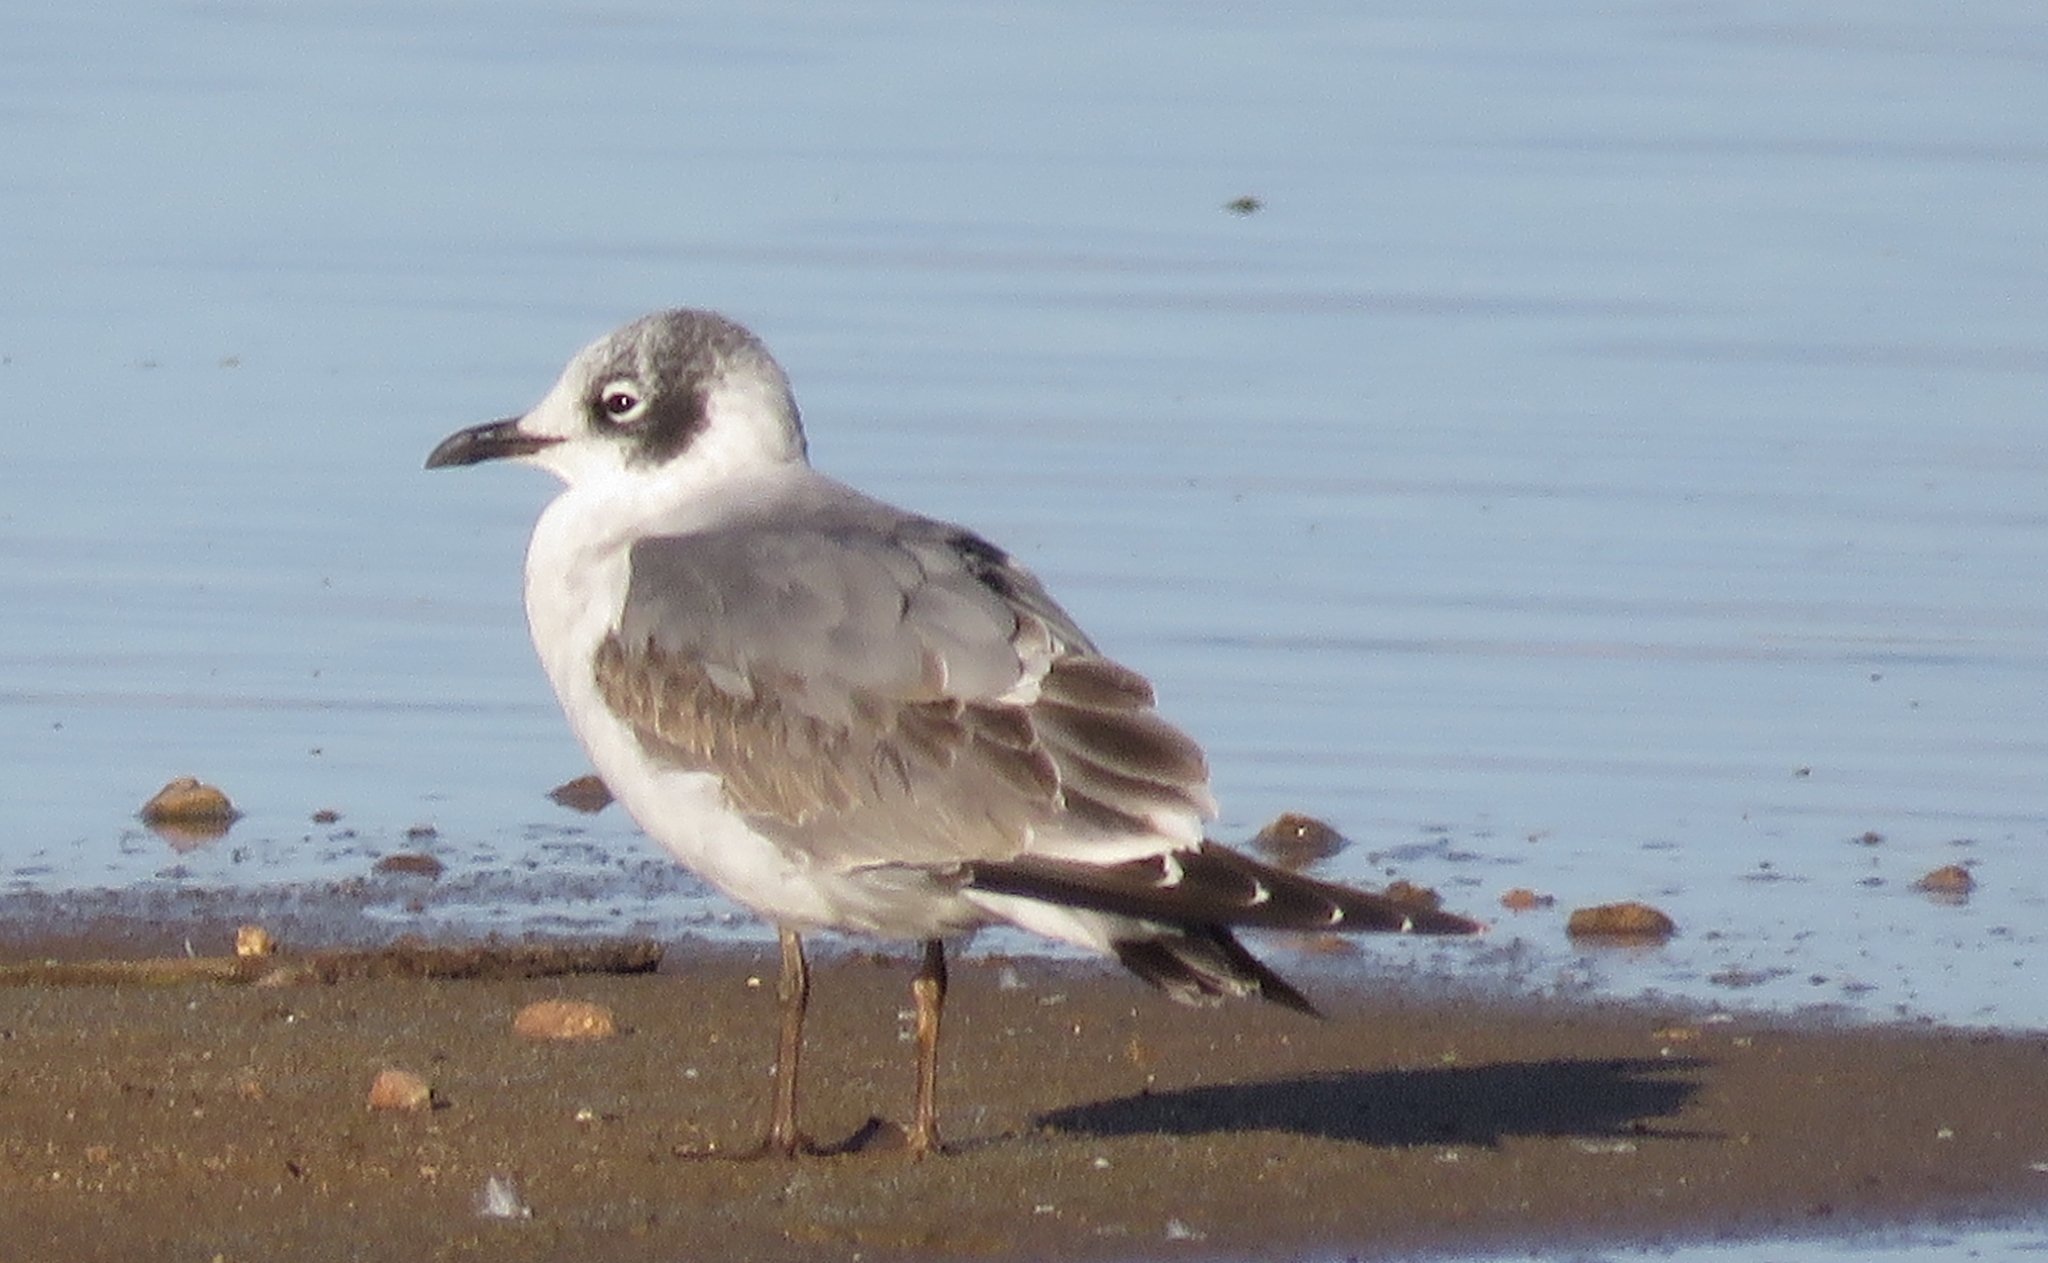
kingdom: Animalia
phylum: Chordata
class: Aves
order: Charadriiformes
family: Laridae
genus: Leucophaeus
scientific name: Leucophaeus pipixcan
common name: Franklin's gull
